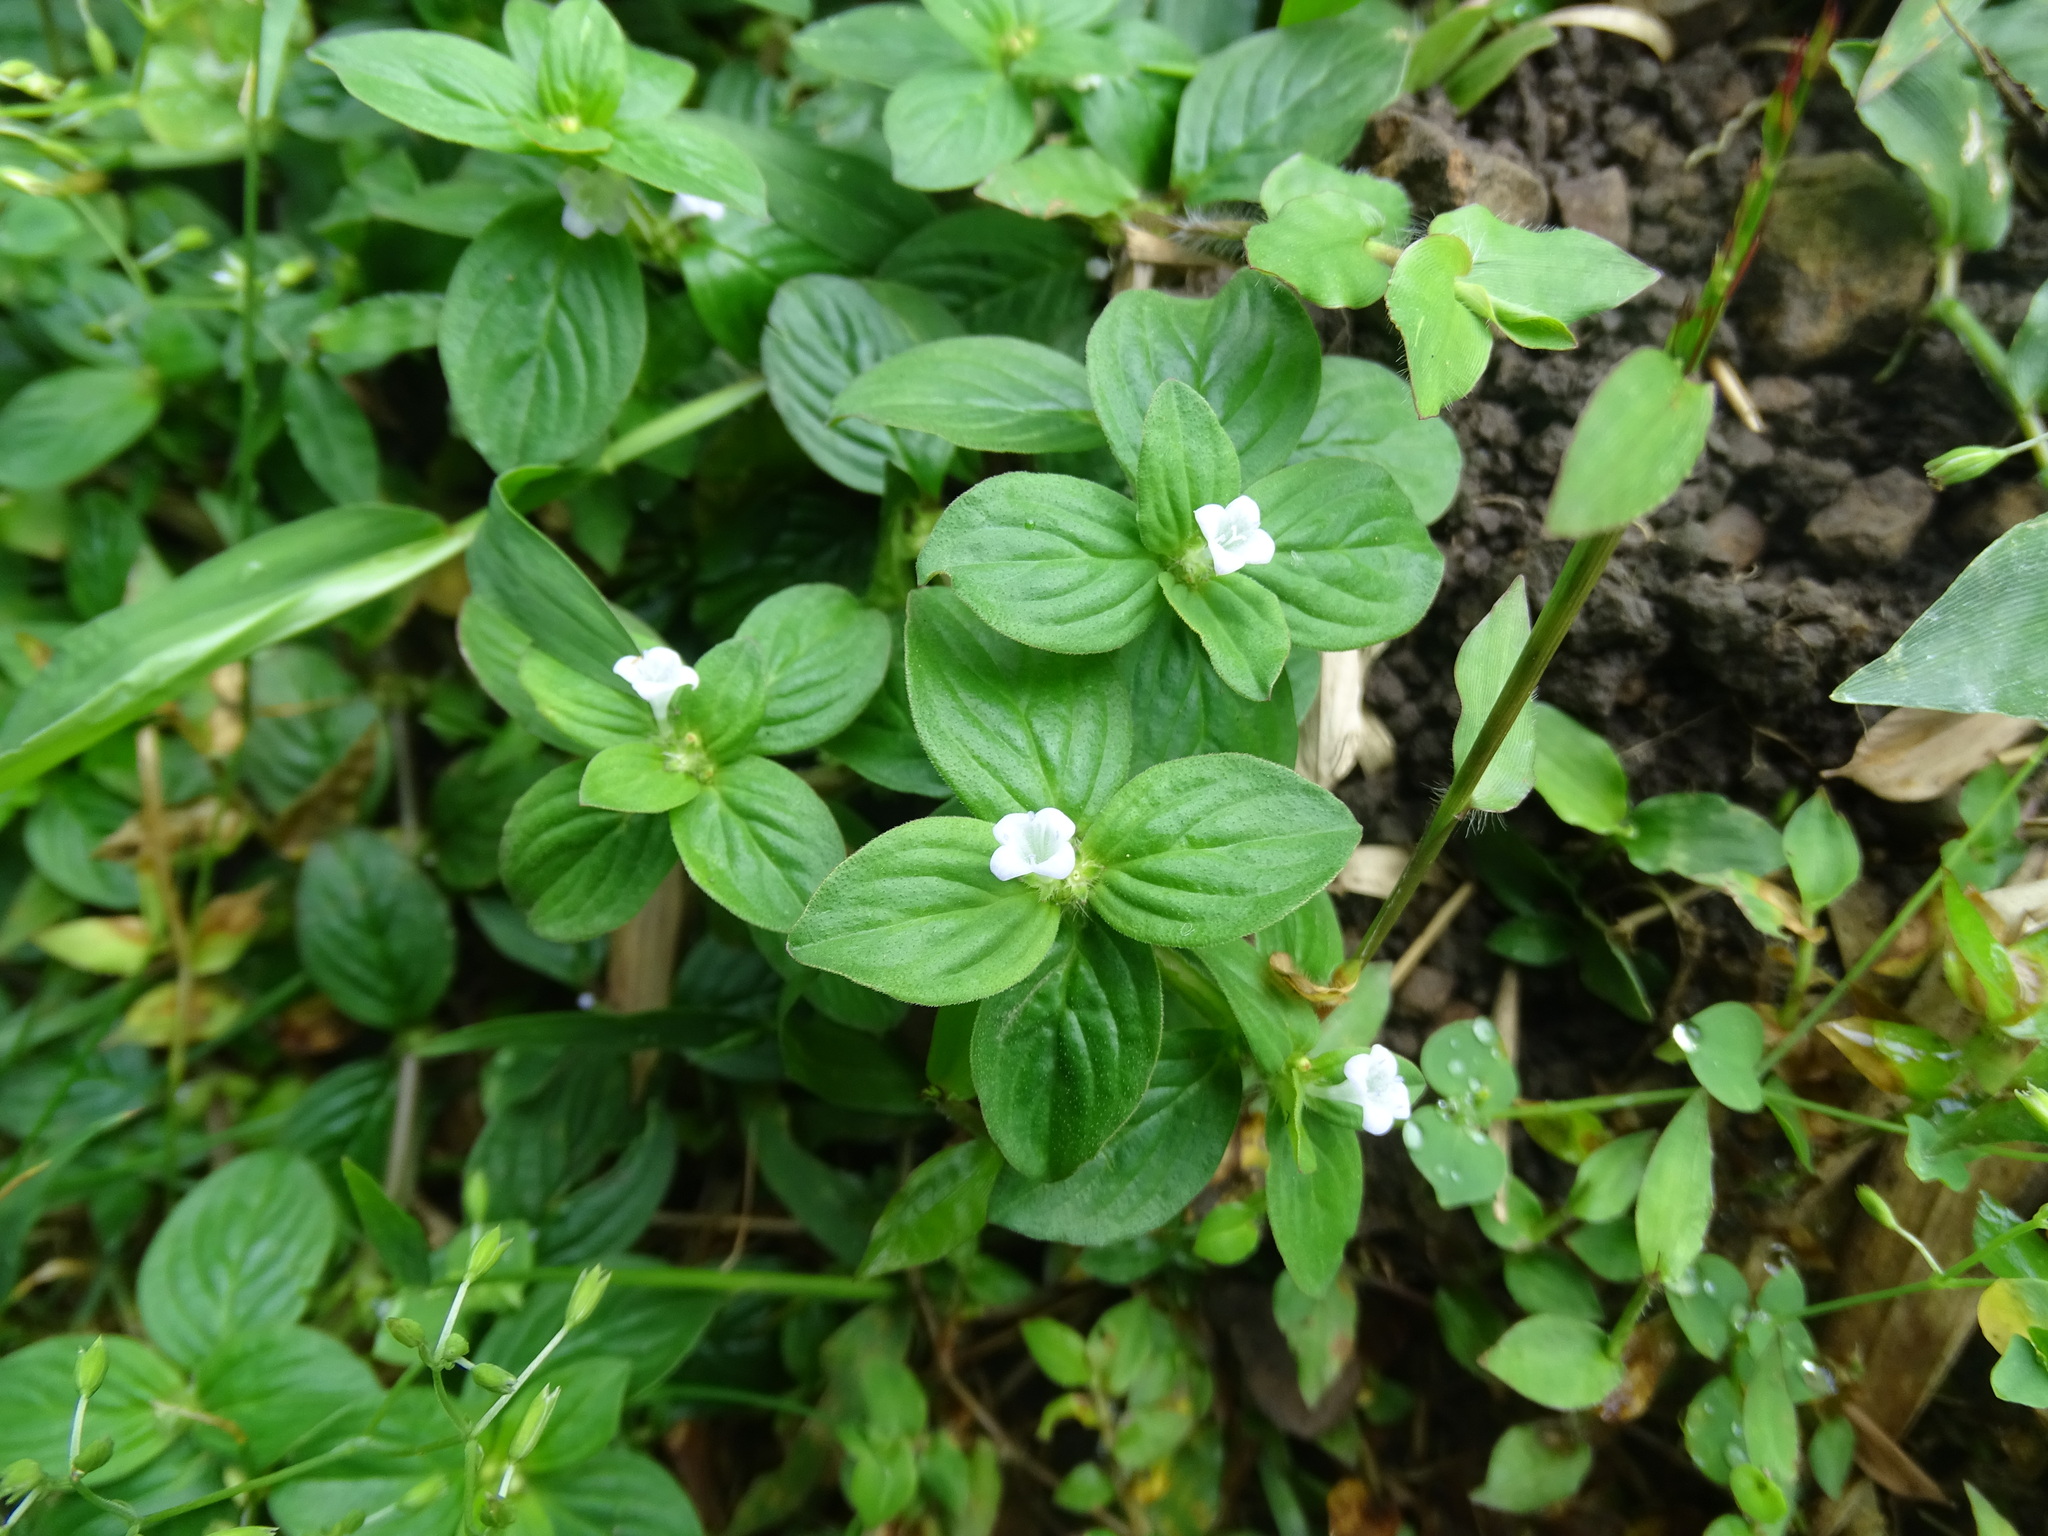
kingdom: Plantae
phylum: Tracheophyta
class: Magnoliopsida
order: Gentianales
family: Rubiaceae
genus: Spermacoce
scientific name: Spermacoce latifolia
